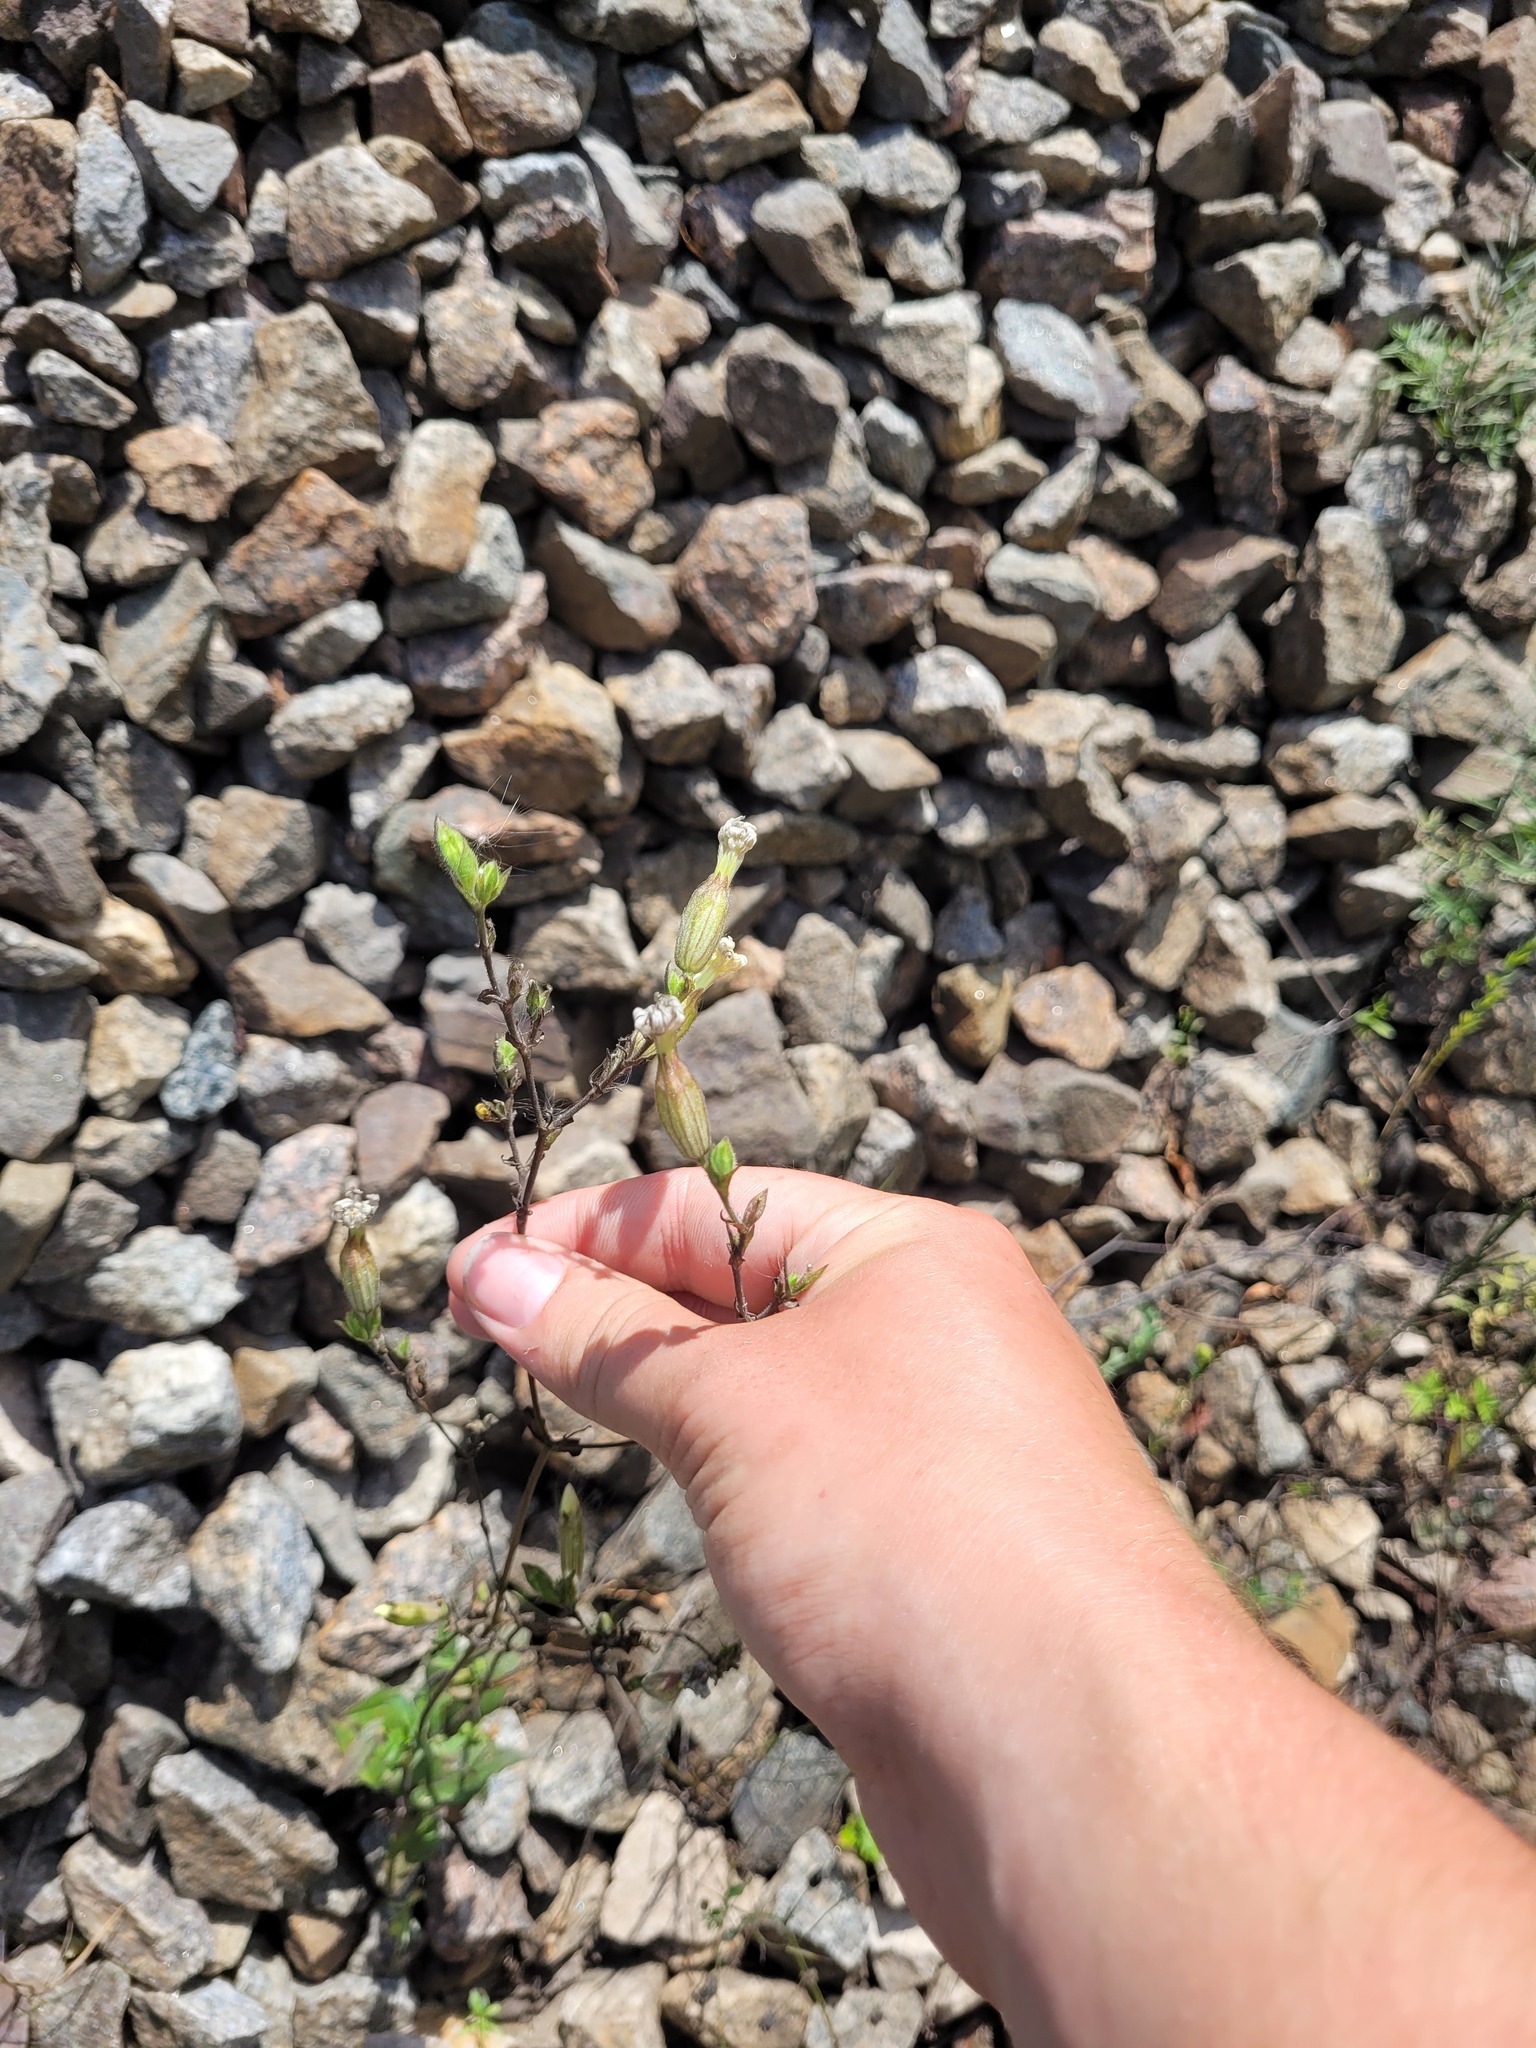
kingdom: Plantae
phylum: Tracheophyta
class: Magnoliopsida
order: Caryophyllales
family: Caryophyllaceae
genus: Silene
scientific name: Silene latifolia
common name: White campion
